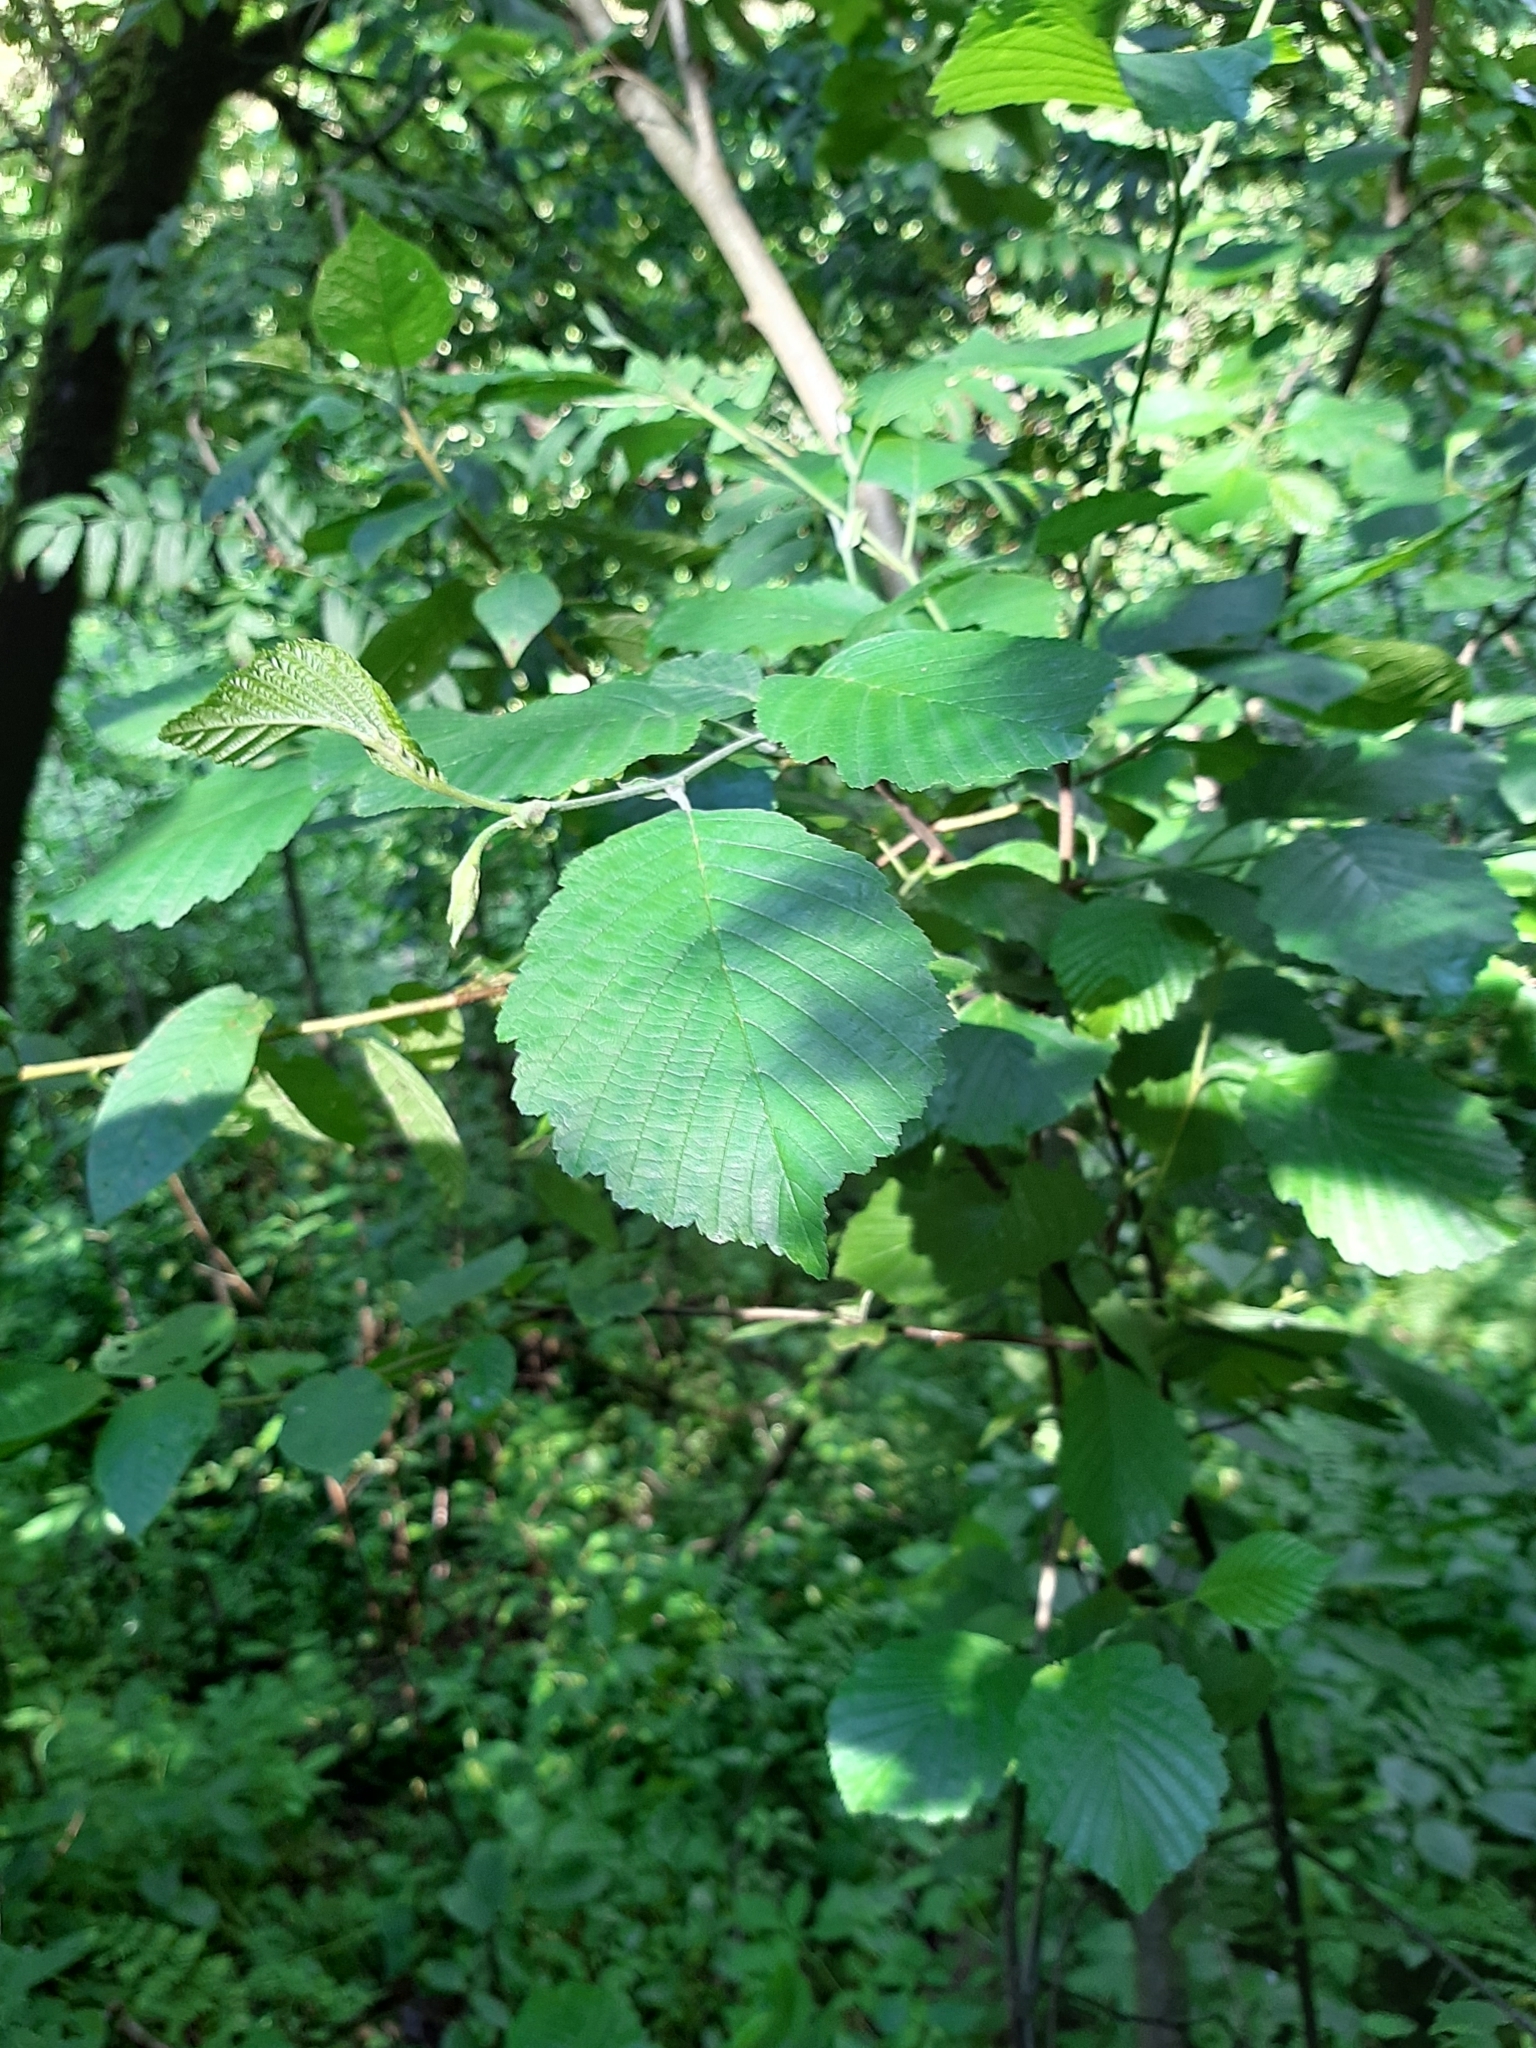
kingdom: Plantae
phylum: Tracheophyta
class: Magnoliopsida
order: Fagales
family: Betulaceae
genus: Alnus
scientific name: Alnus incana
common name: Grey alder
